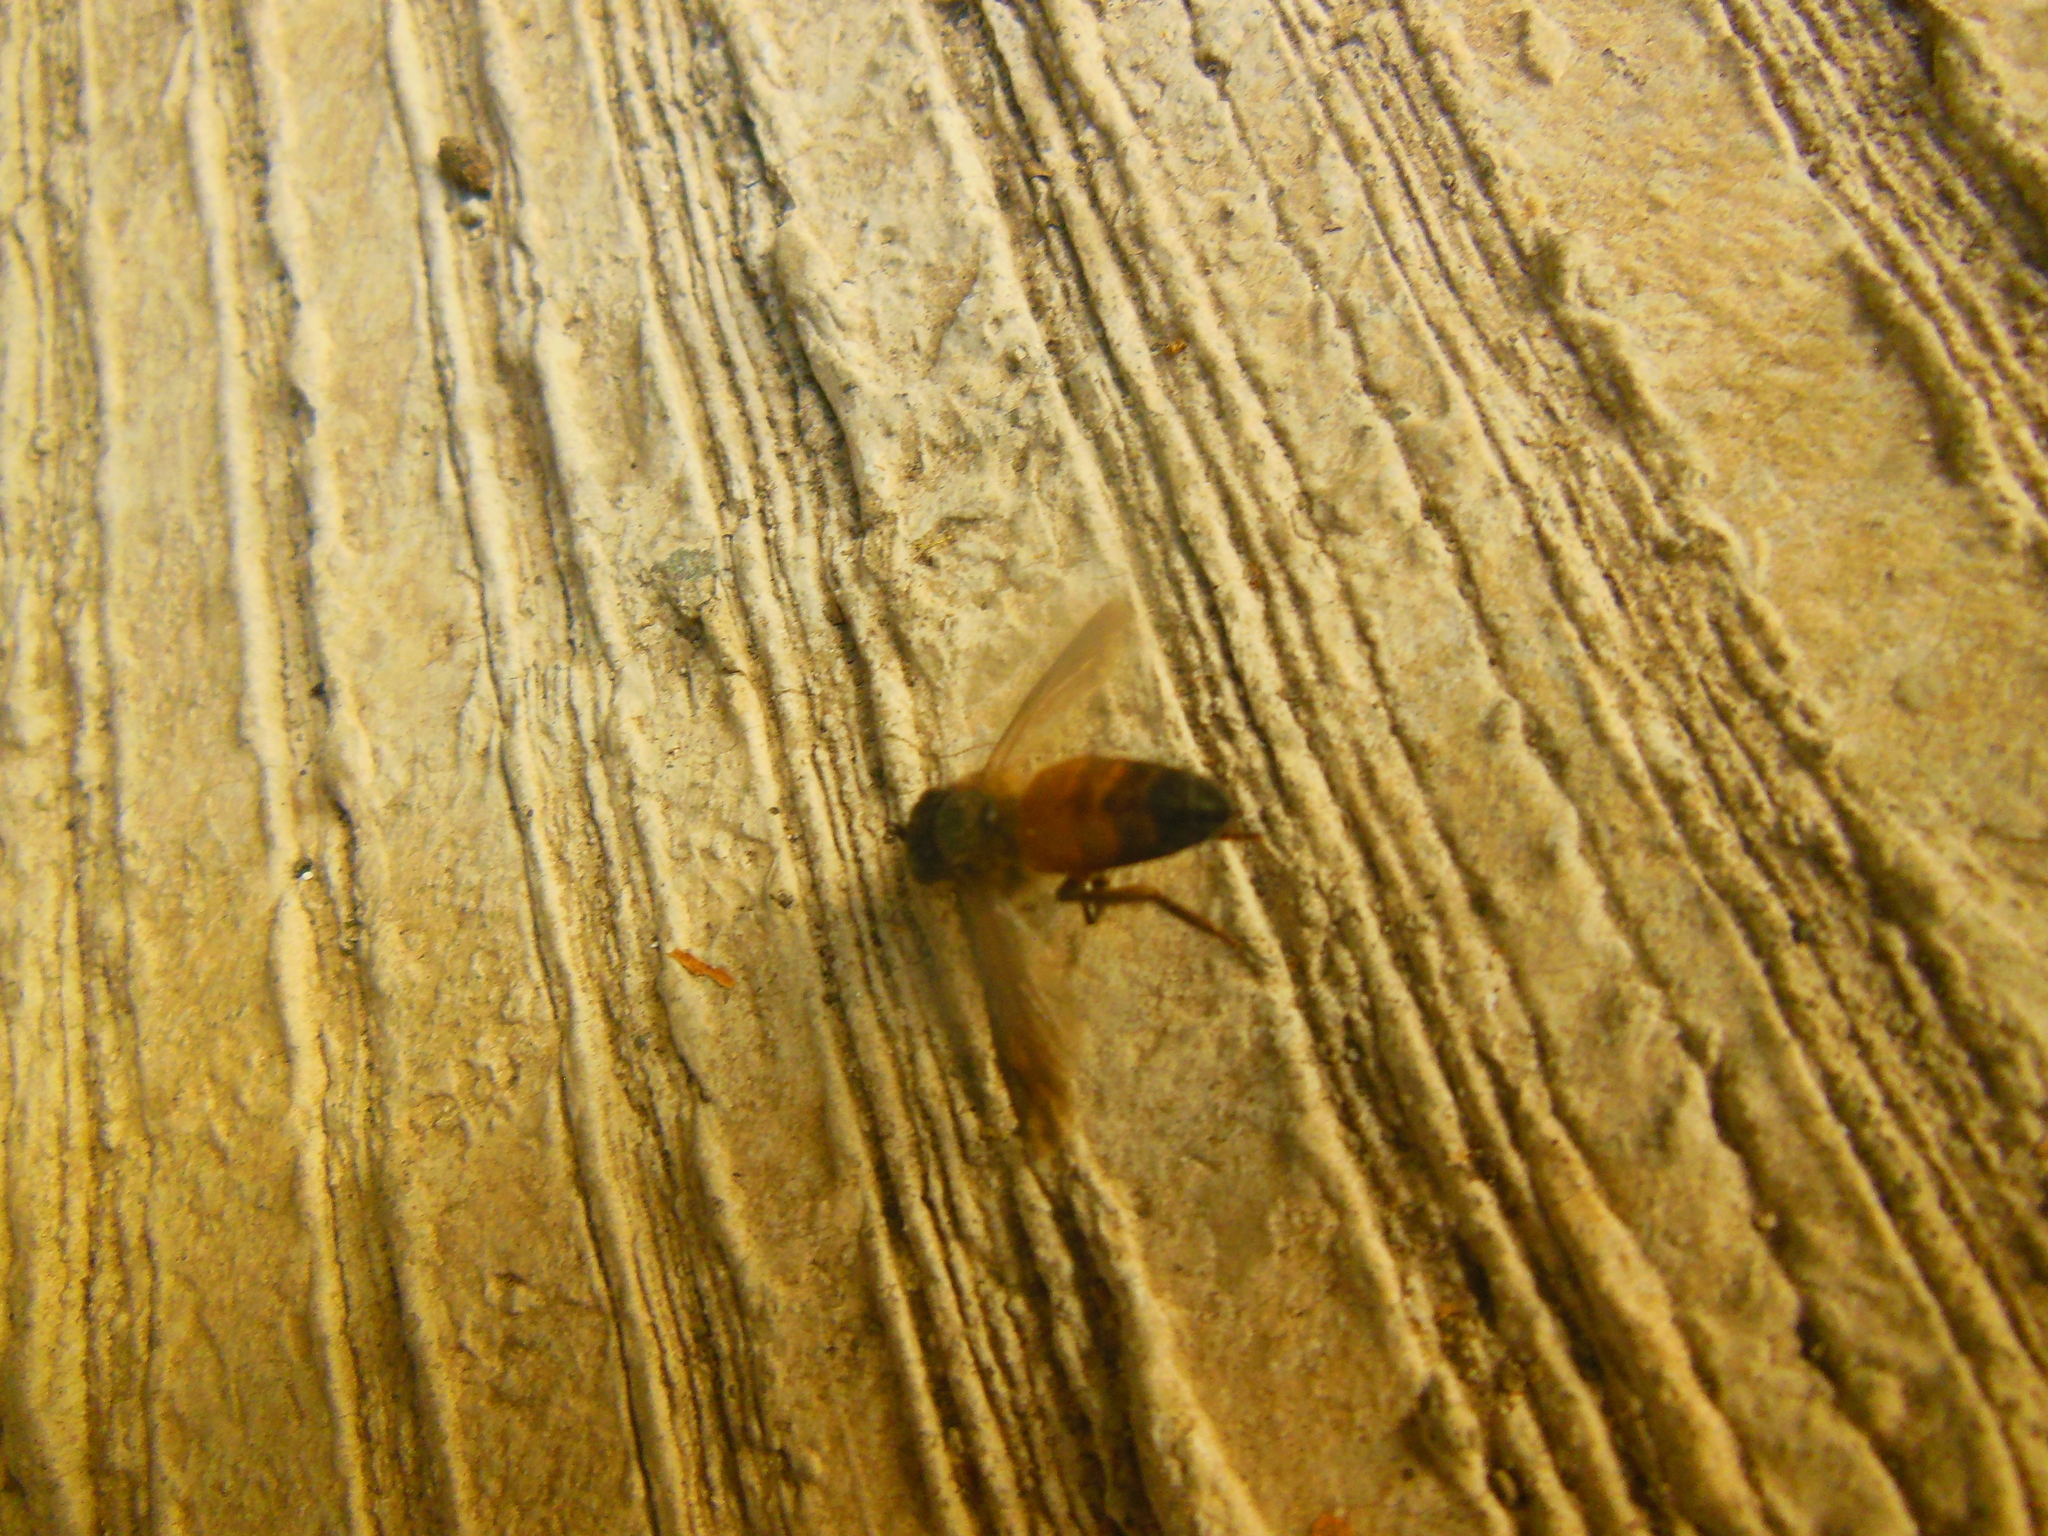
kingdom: Animalia
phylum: Arthropoda
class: Insecta
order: Hymenoptera
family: Apidae
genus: Apis
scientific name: Apis dorsata
